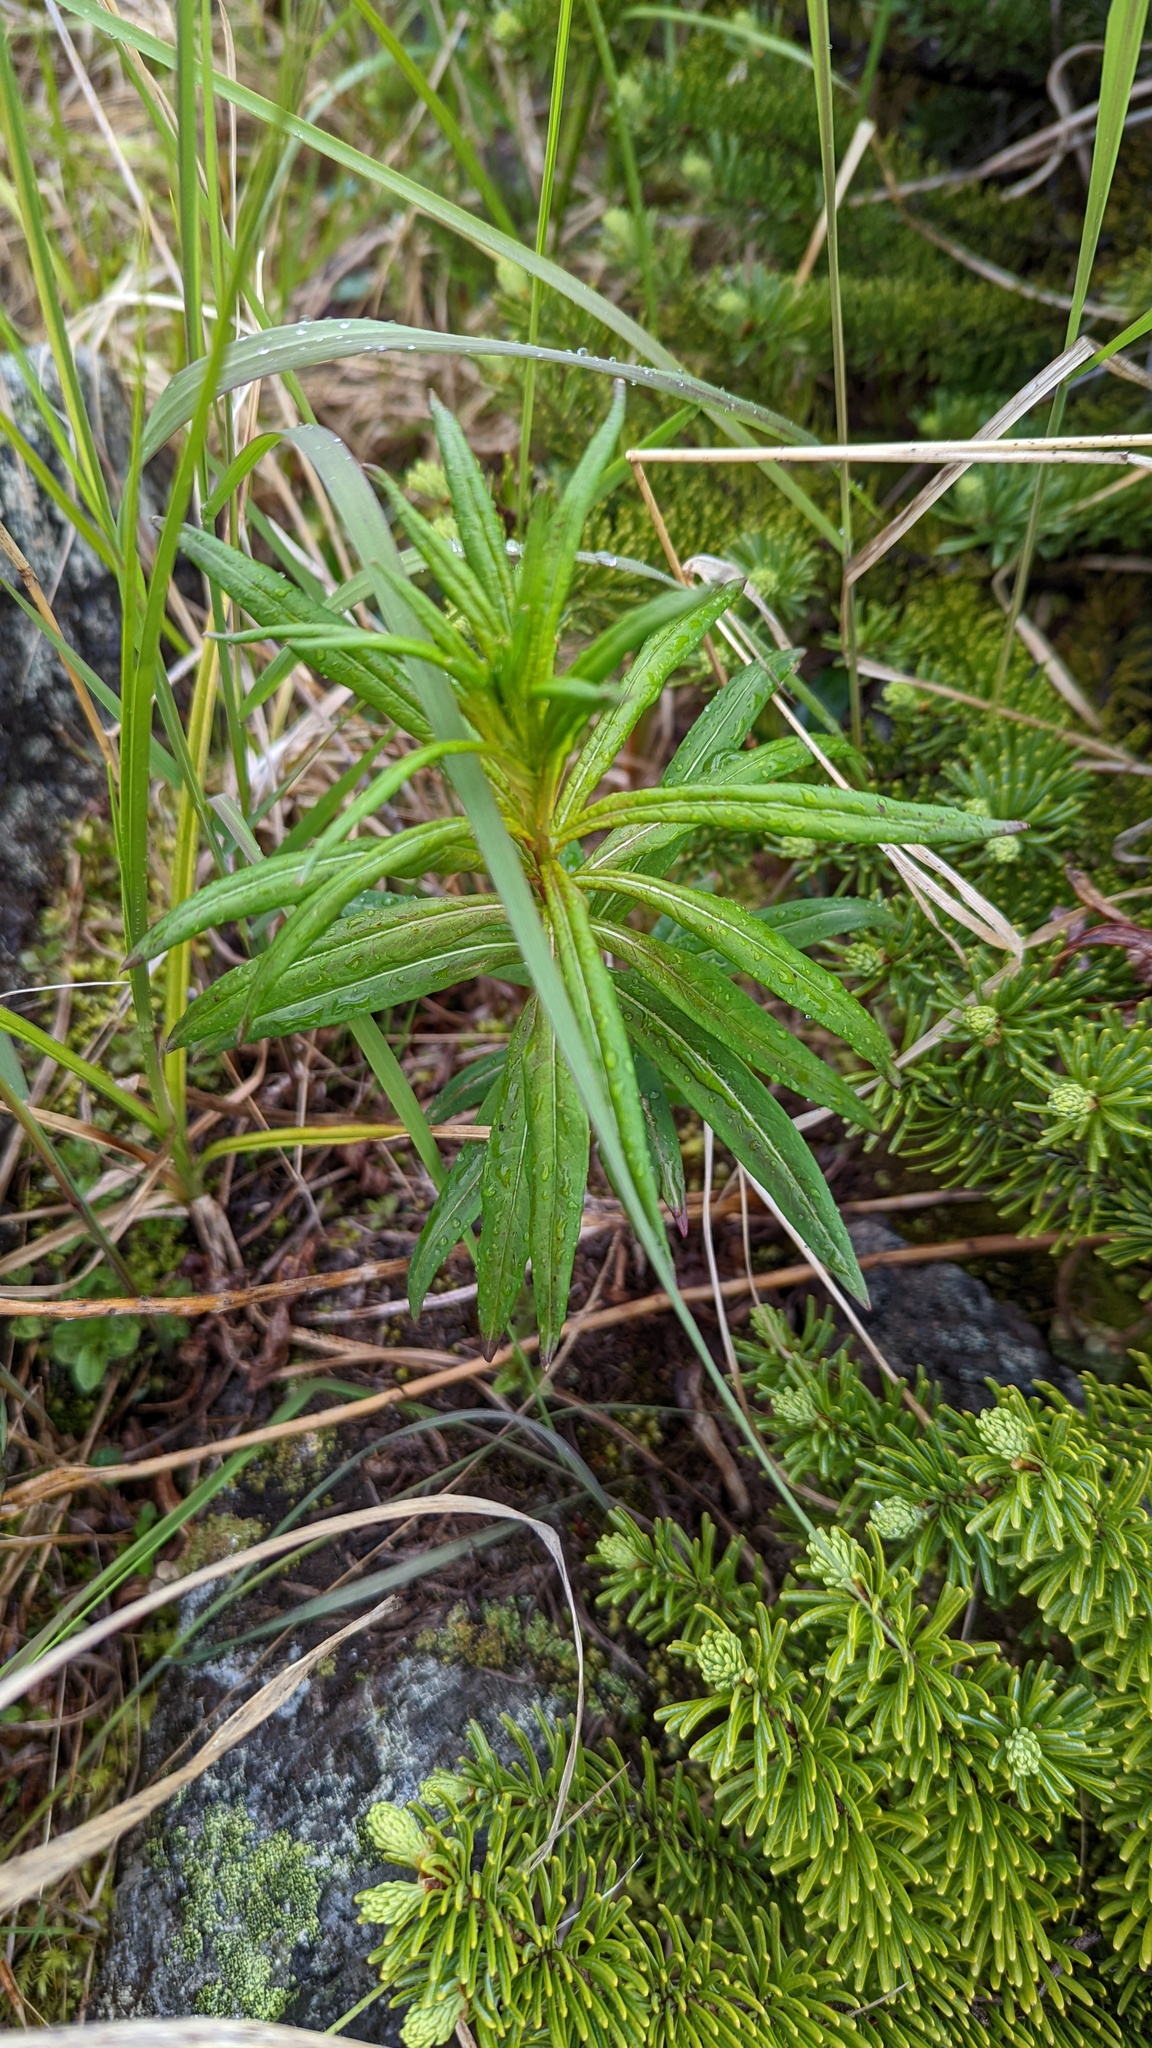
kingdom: Plantae
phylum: Tracheophyta
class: Magnoliopsida
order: Myrtales
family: Onagraceae
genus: Chamaenerion
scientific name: Chamaenerion angustifolium
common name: Fireweed
